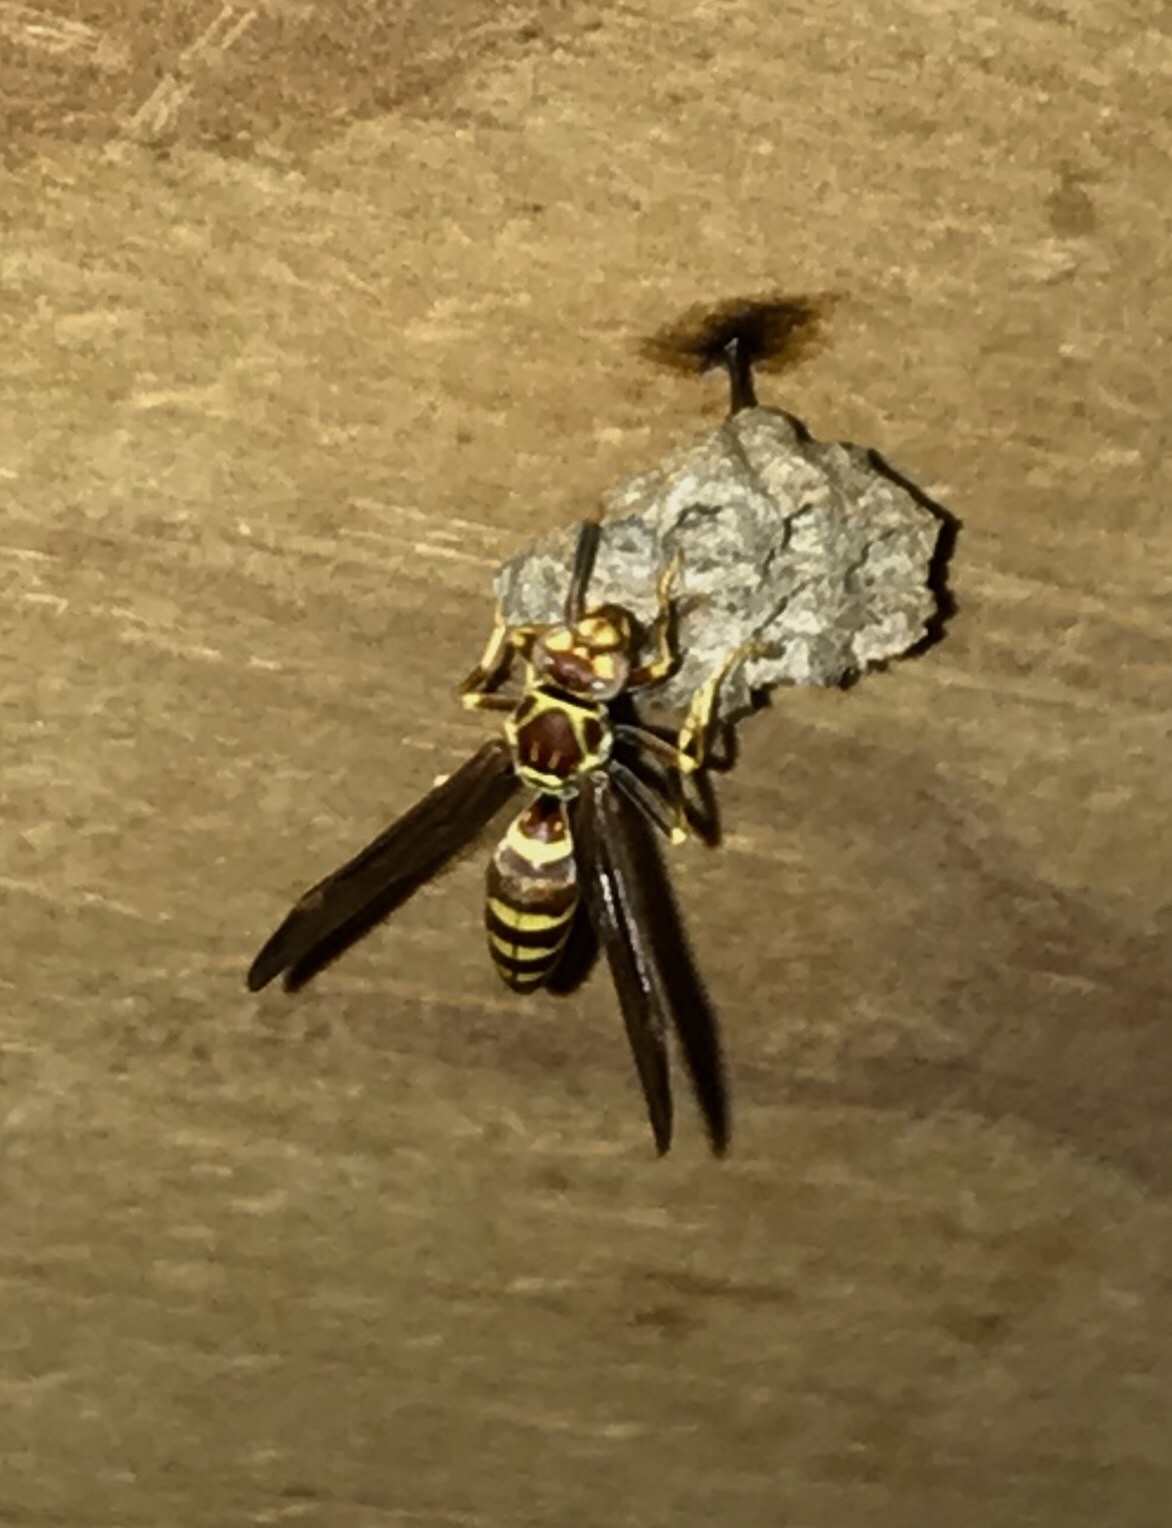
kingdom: Animalia
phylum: Arthropoda
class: Insecta
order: Hymenoptera
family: Eumenidae
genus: Polistes
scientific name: Polistes exclamans
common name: Paper wasp
